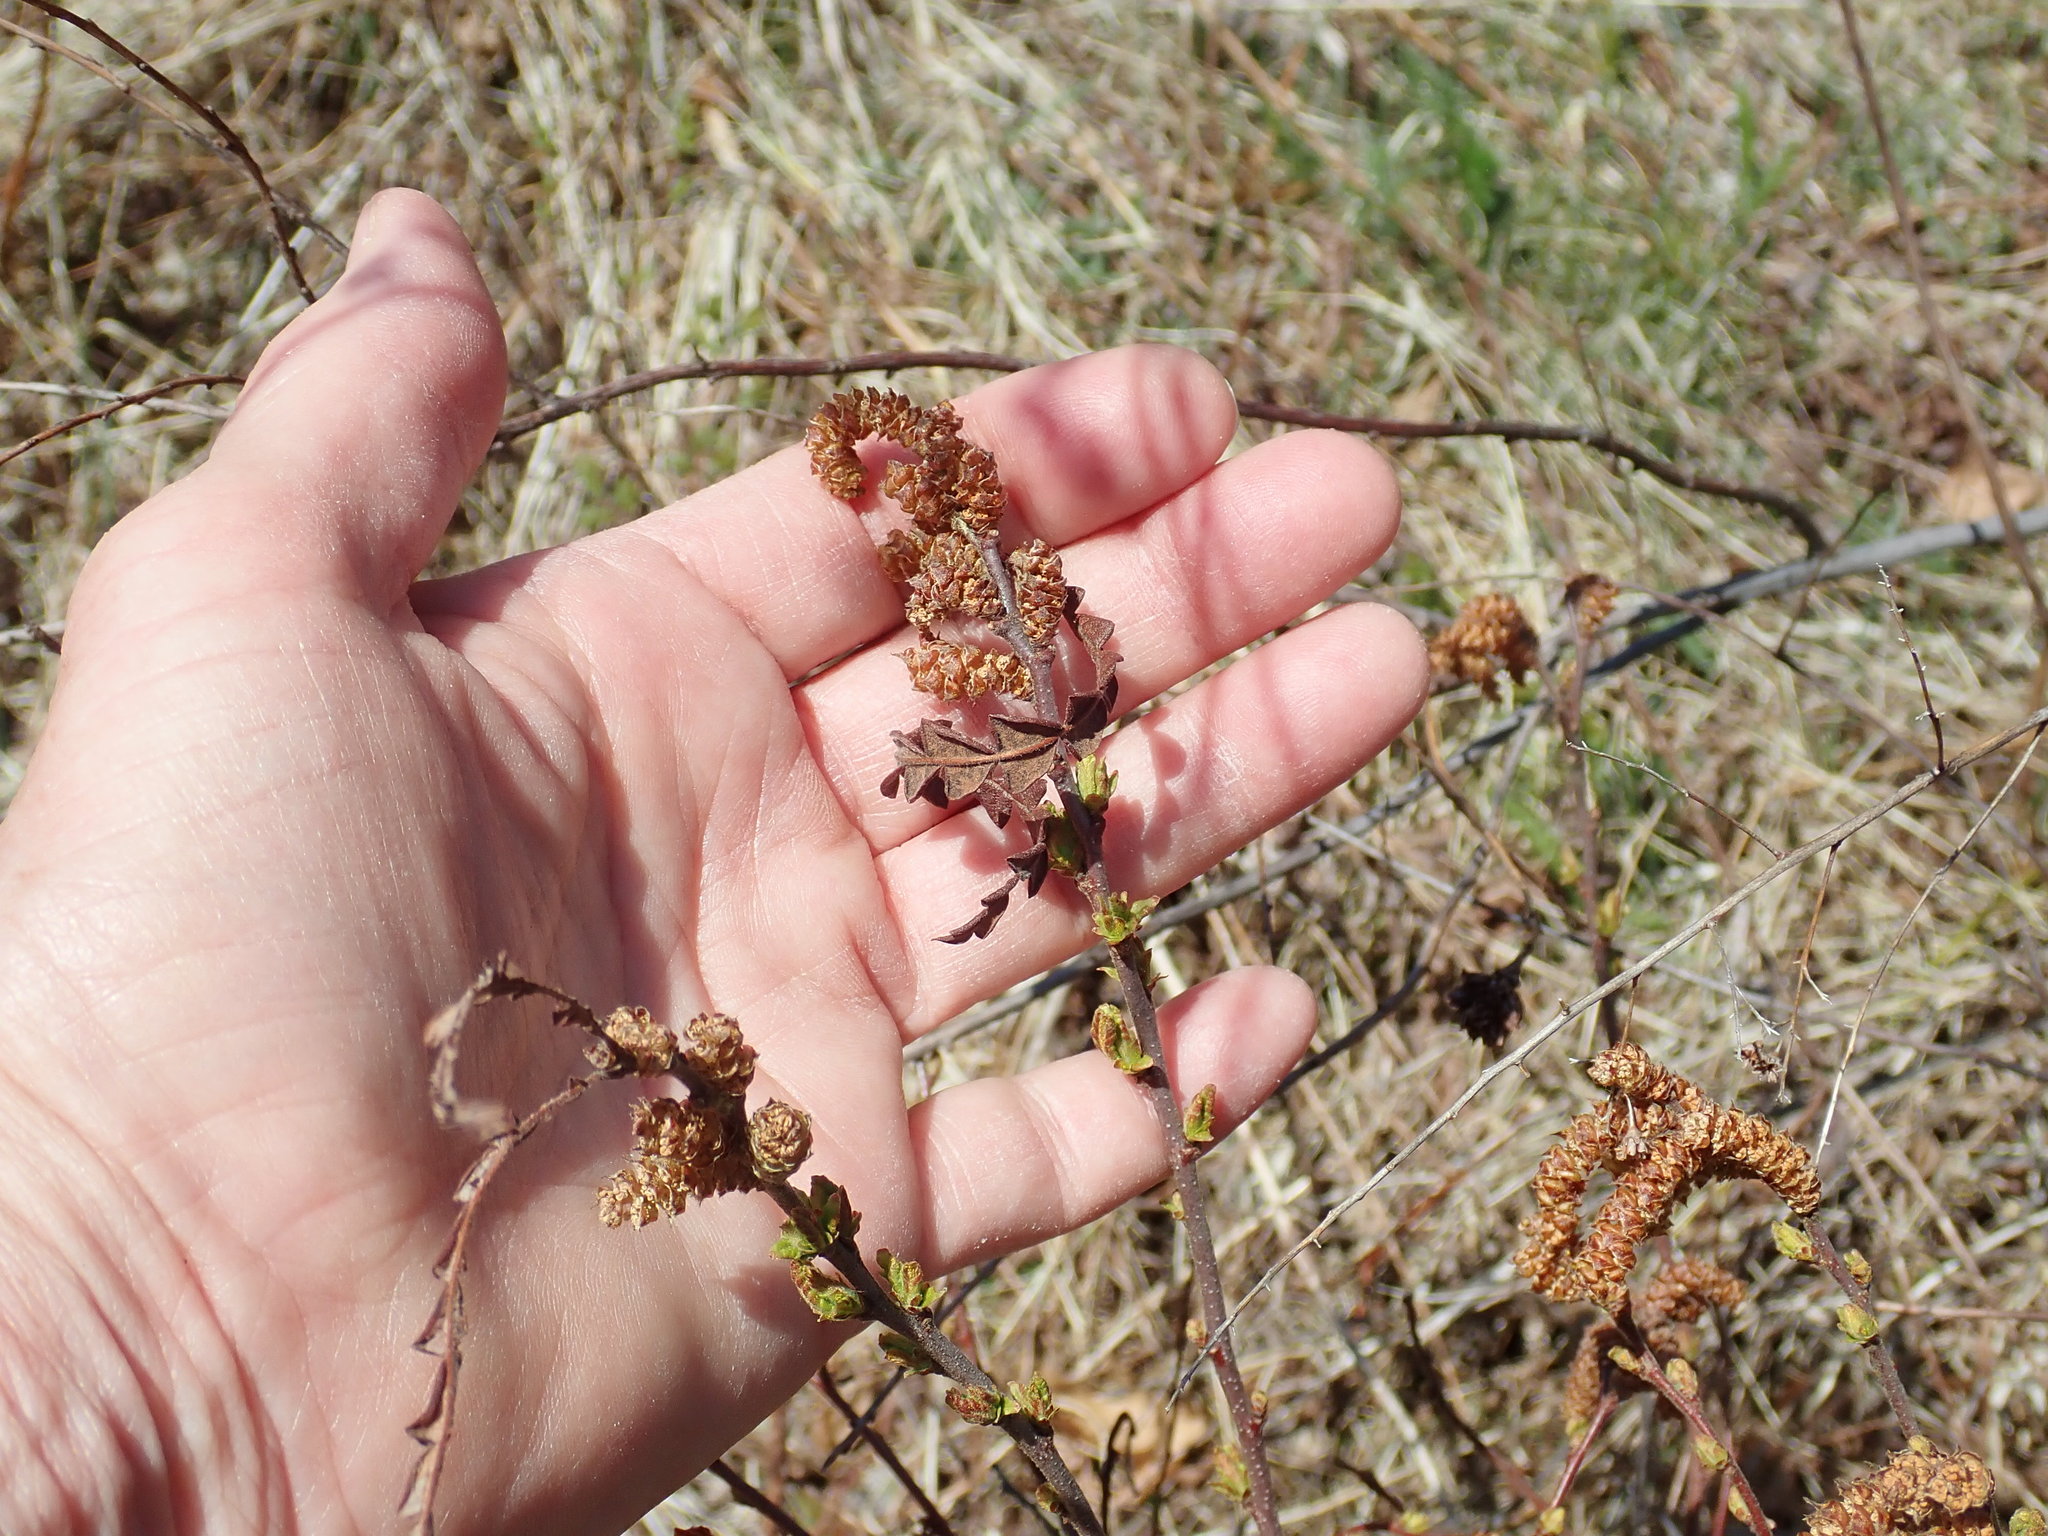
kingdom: Plantae
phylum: Tracheophyta
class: Magnoliopsida
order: Fagales
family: Myricaceae
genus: Comptonia
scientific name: Comptonia peregrina
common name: Sweet-fern
